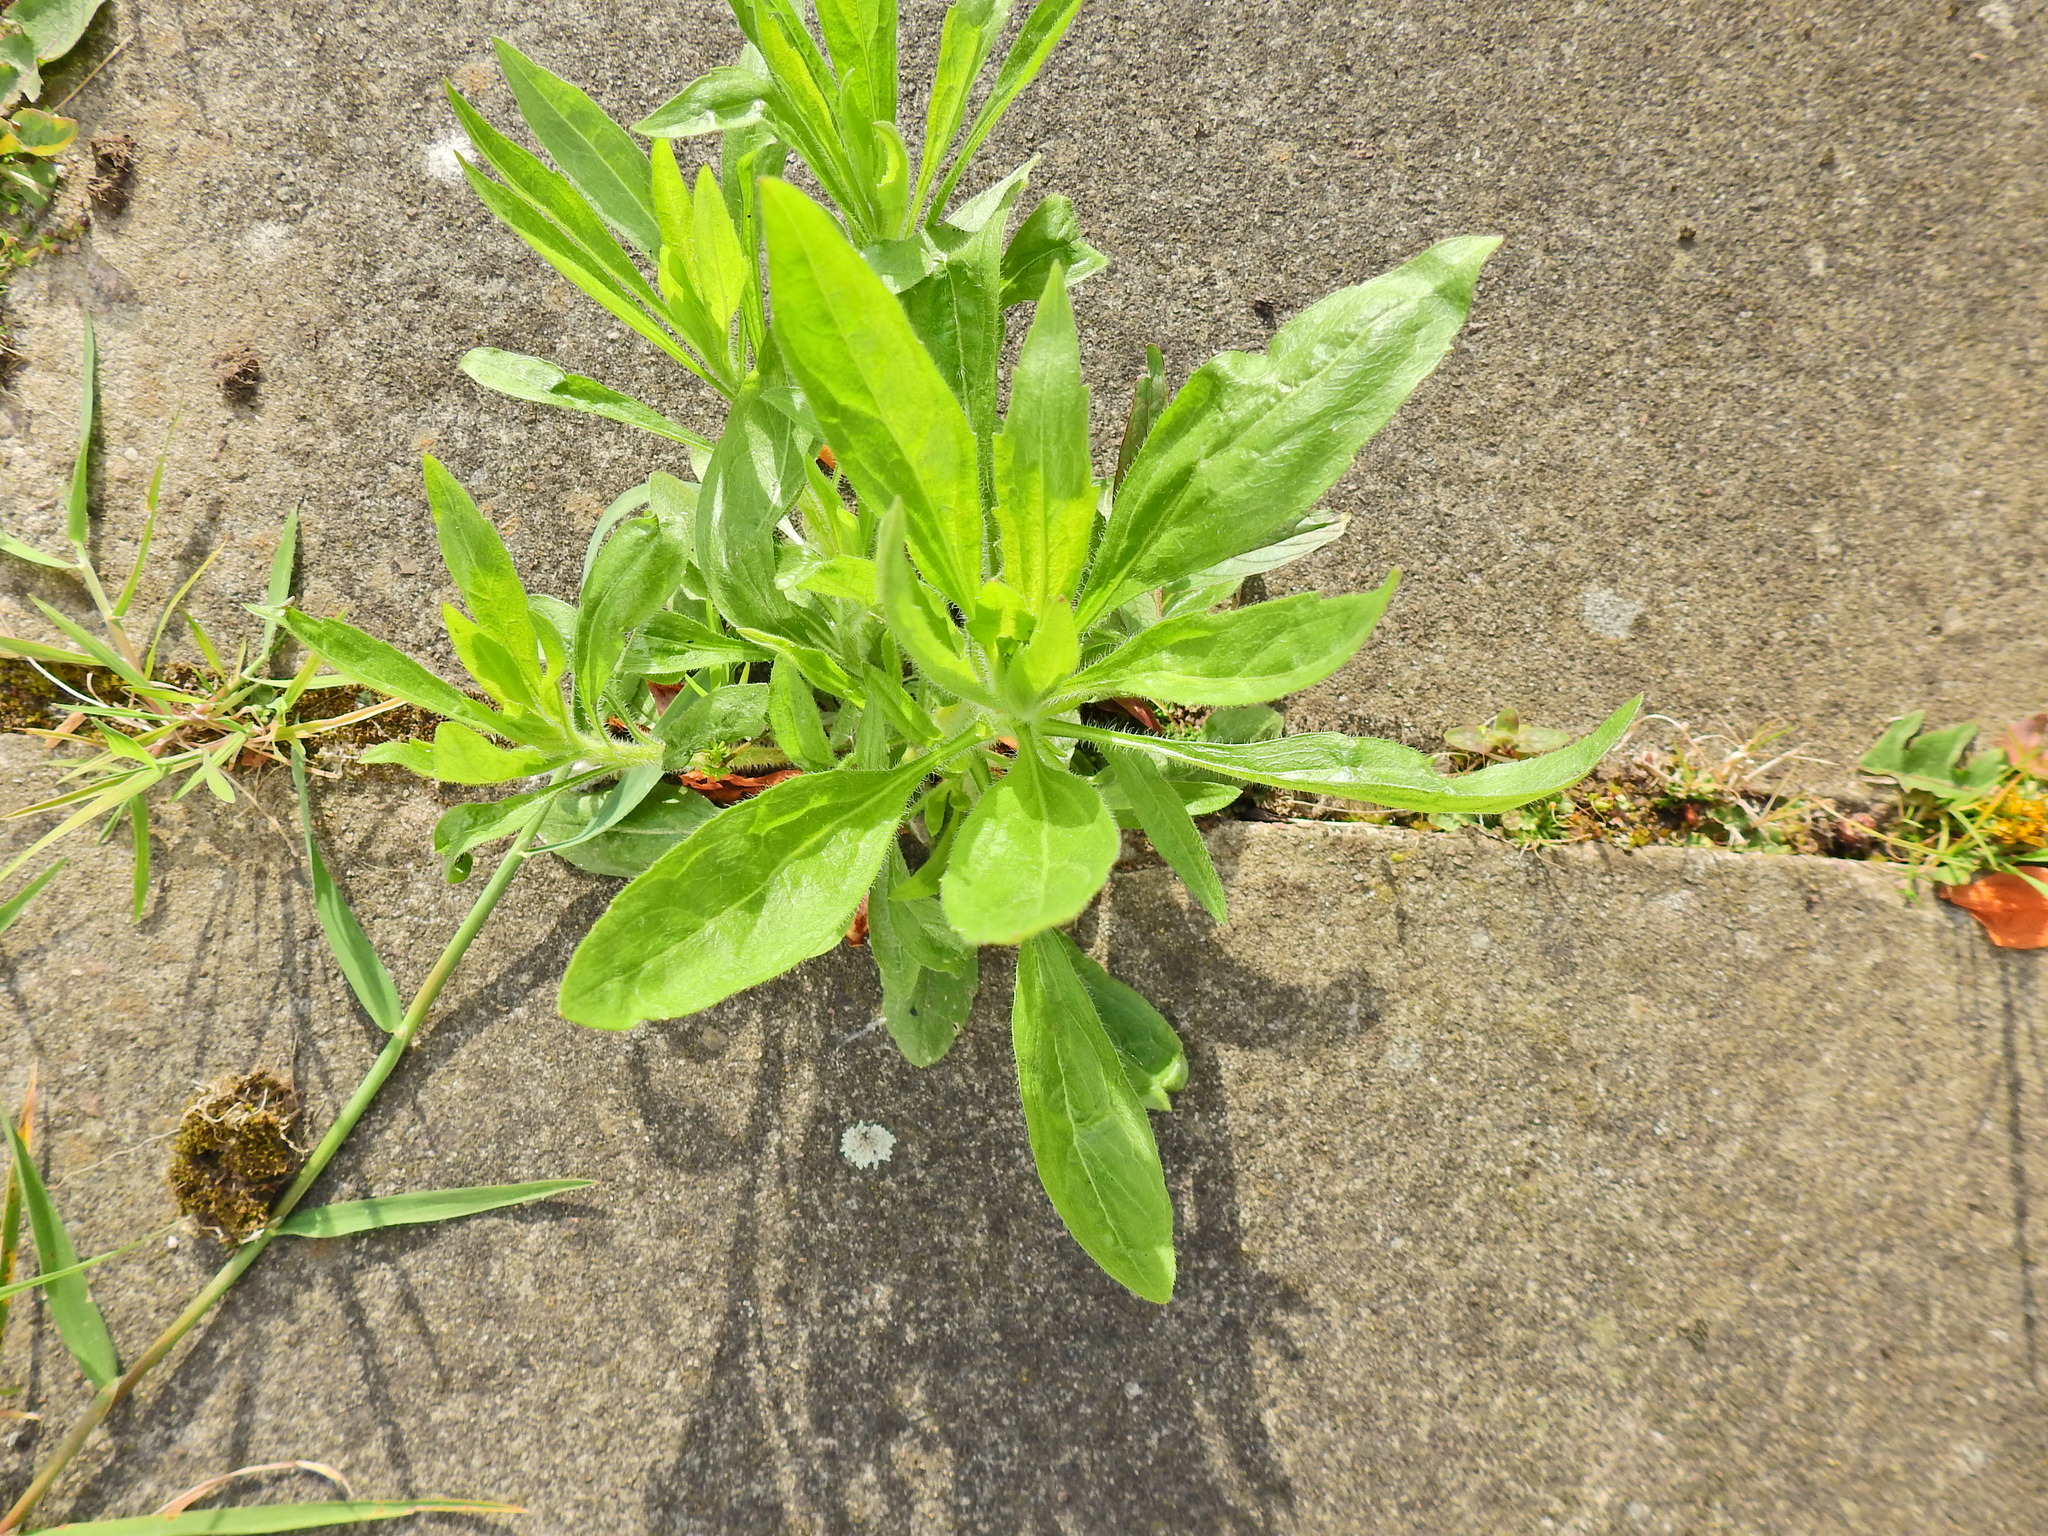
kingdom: Plantae
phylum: Tracheophyta
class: Magnoliopsida
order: Asterales
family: Asteraceae
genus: Erigeron
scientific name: Erigeron canadensis
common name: Canadian fleabane
